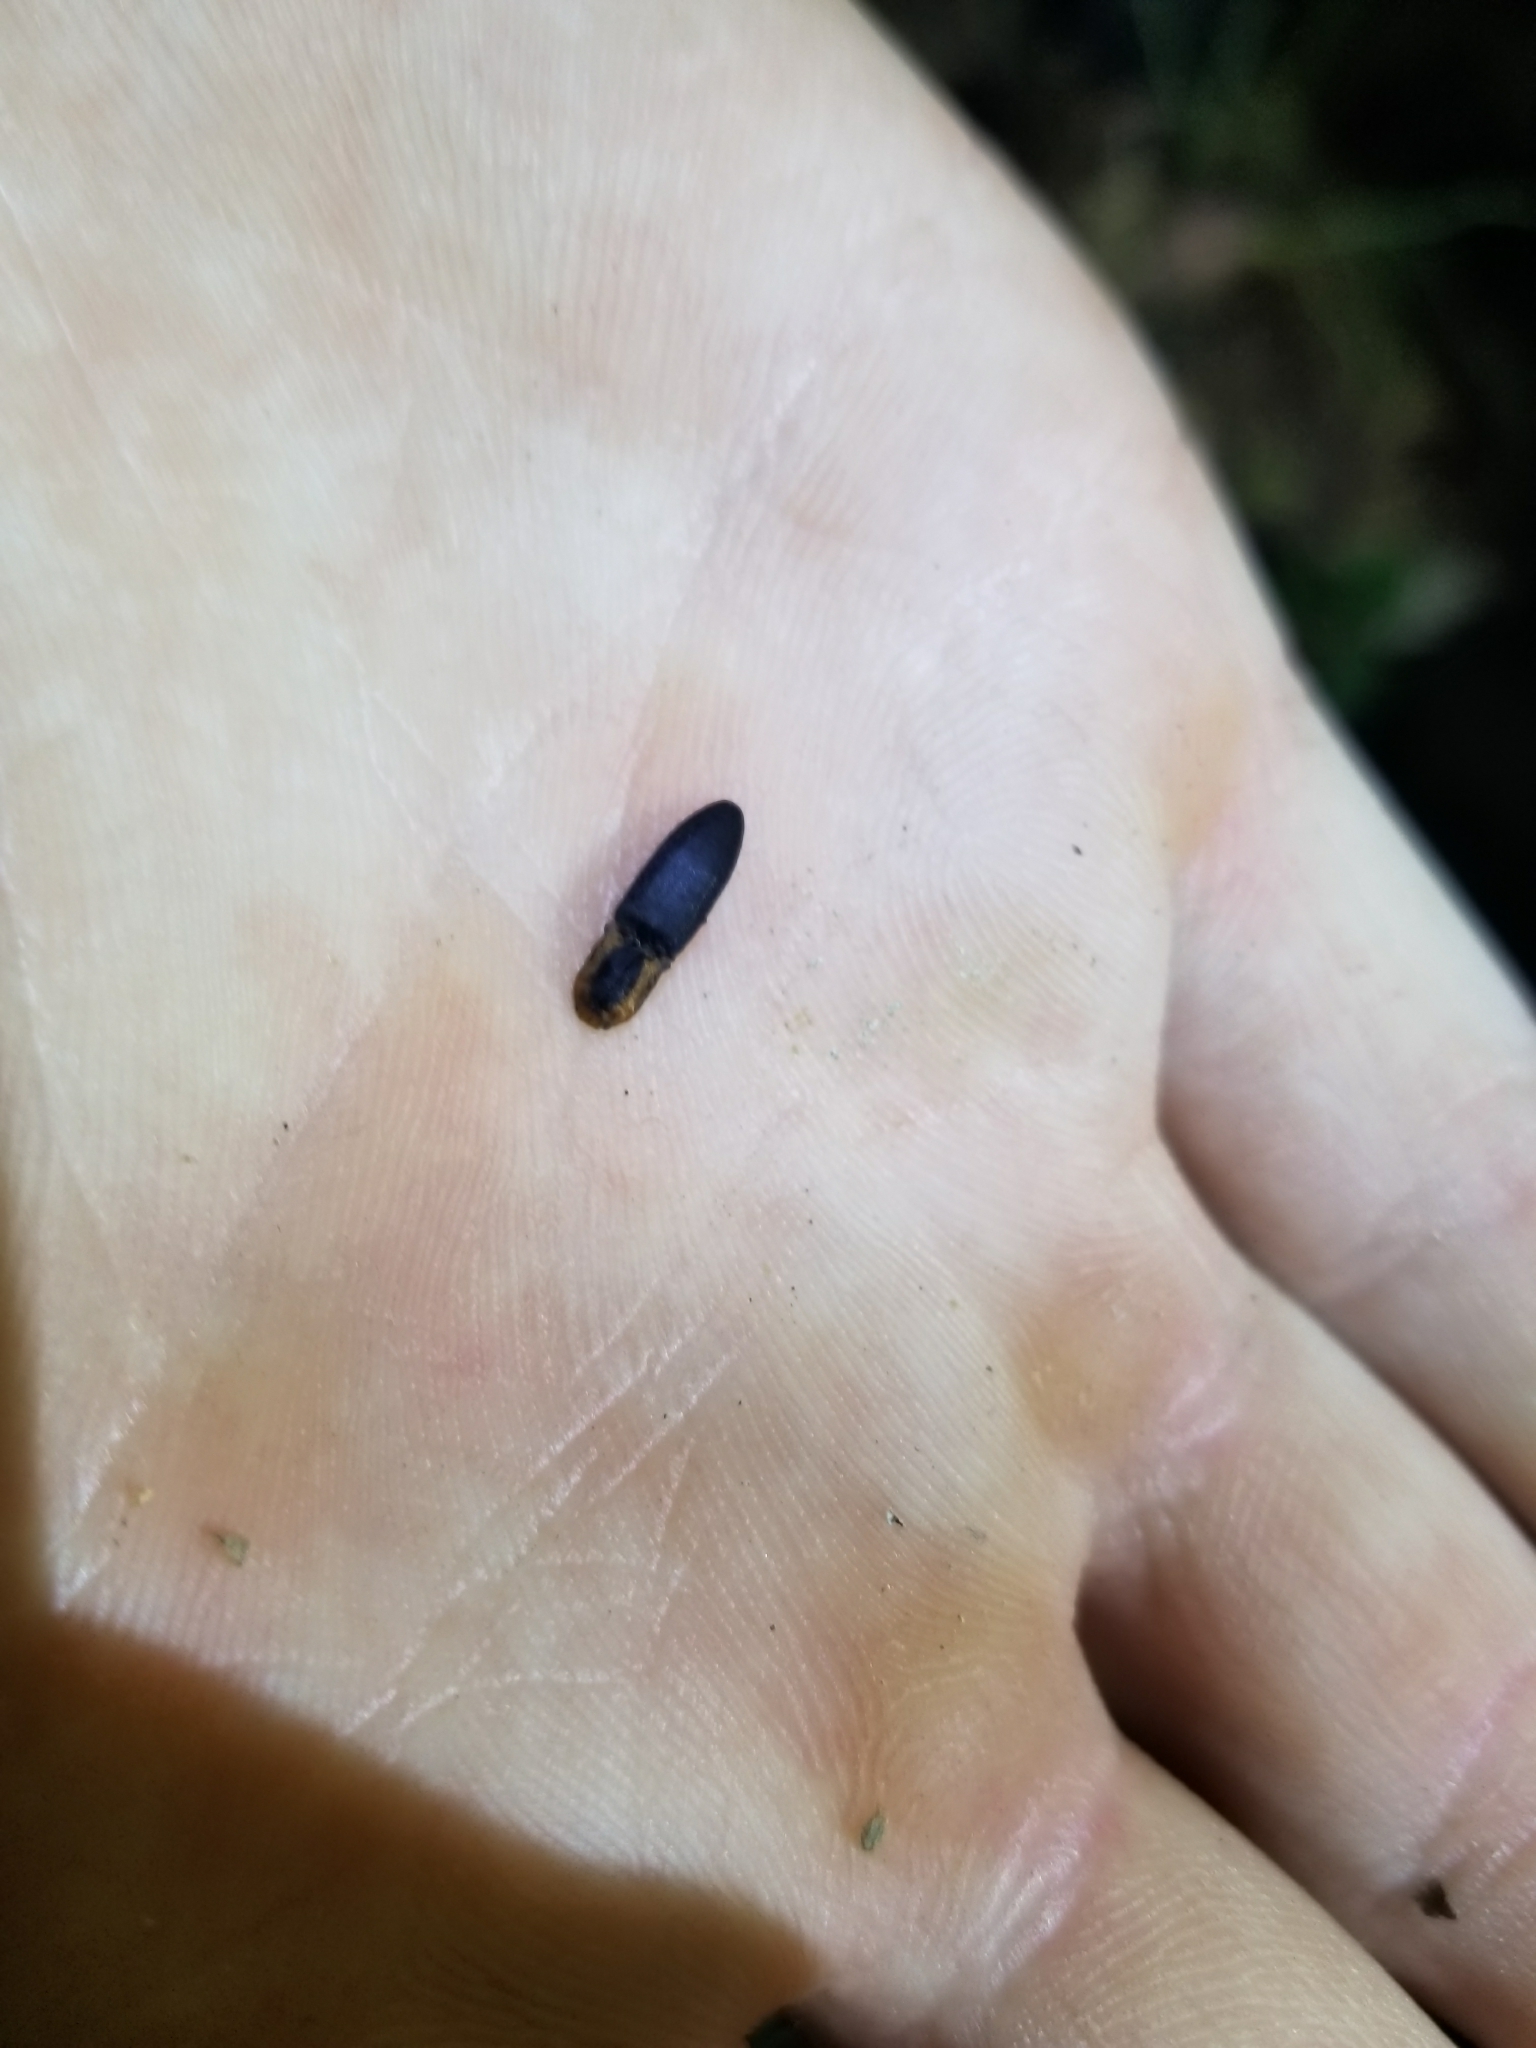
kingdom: Animalia
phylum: Arthropoda
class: Insecta
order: Coleoptera
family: Elateridae
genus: Lacon
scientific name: Lacon discoideus
